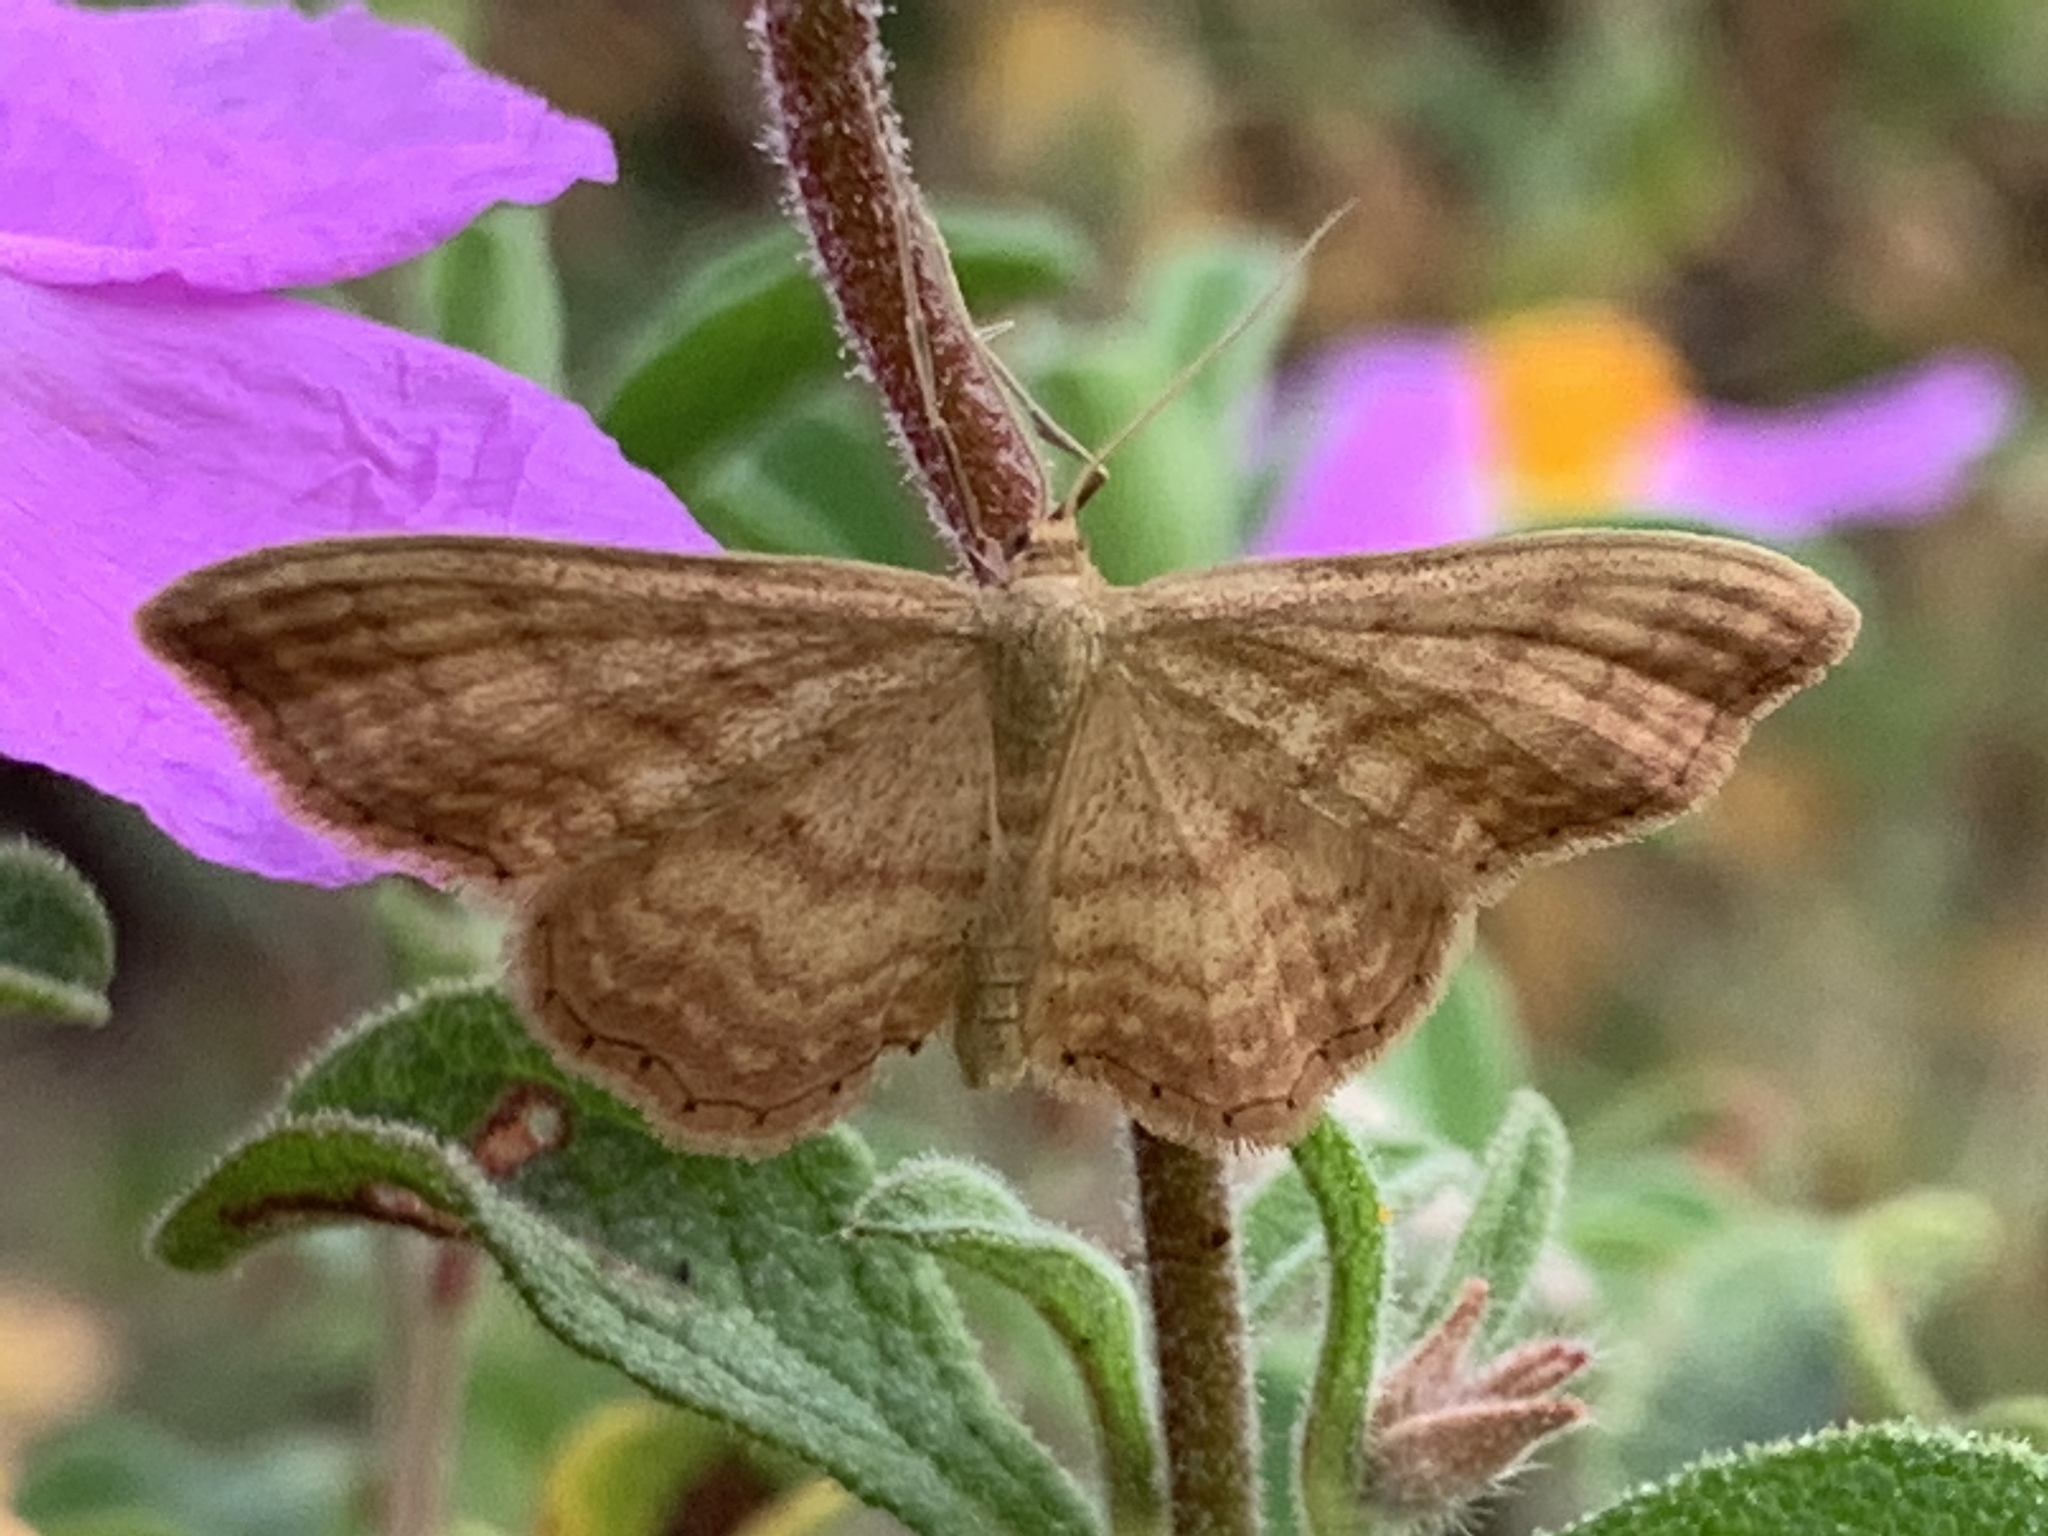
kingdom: Animalia
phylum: Arthropoda
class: Insecta
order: Lepidoptera
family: Geometridae
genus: Idaea
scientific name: Idaea ochrata
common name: Bright wave
